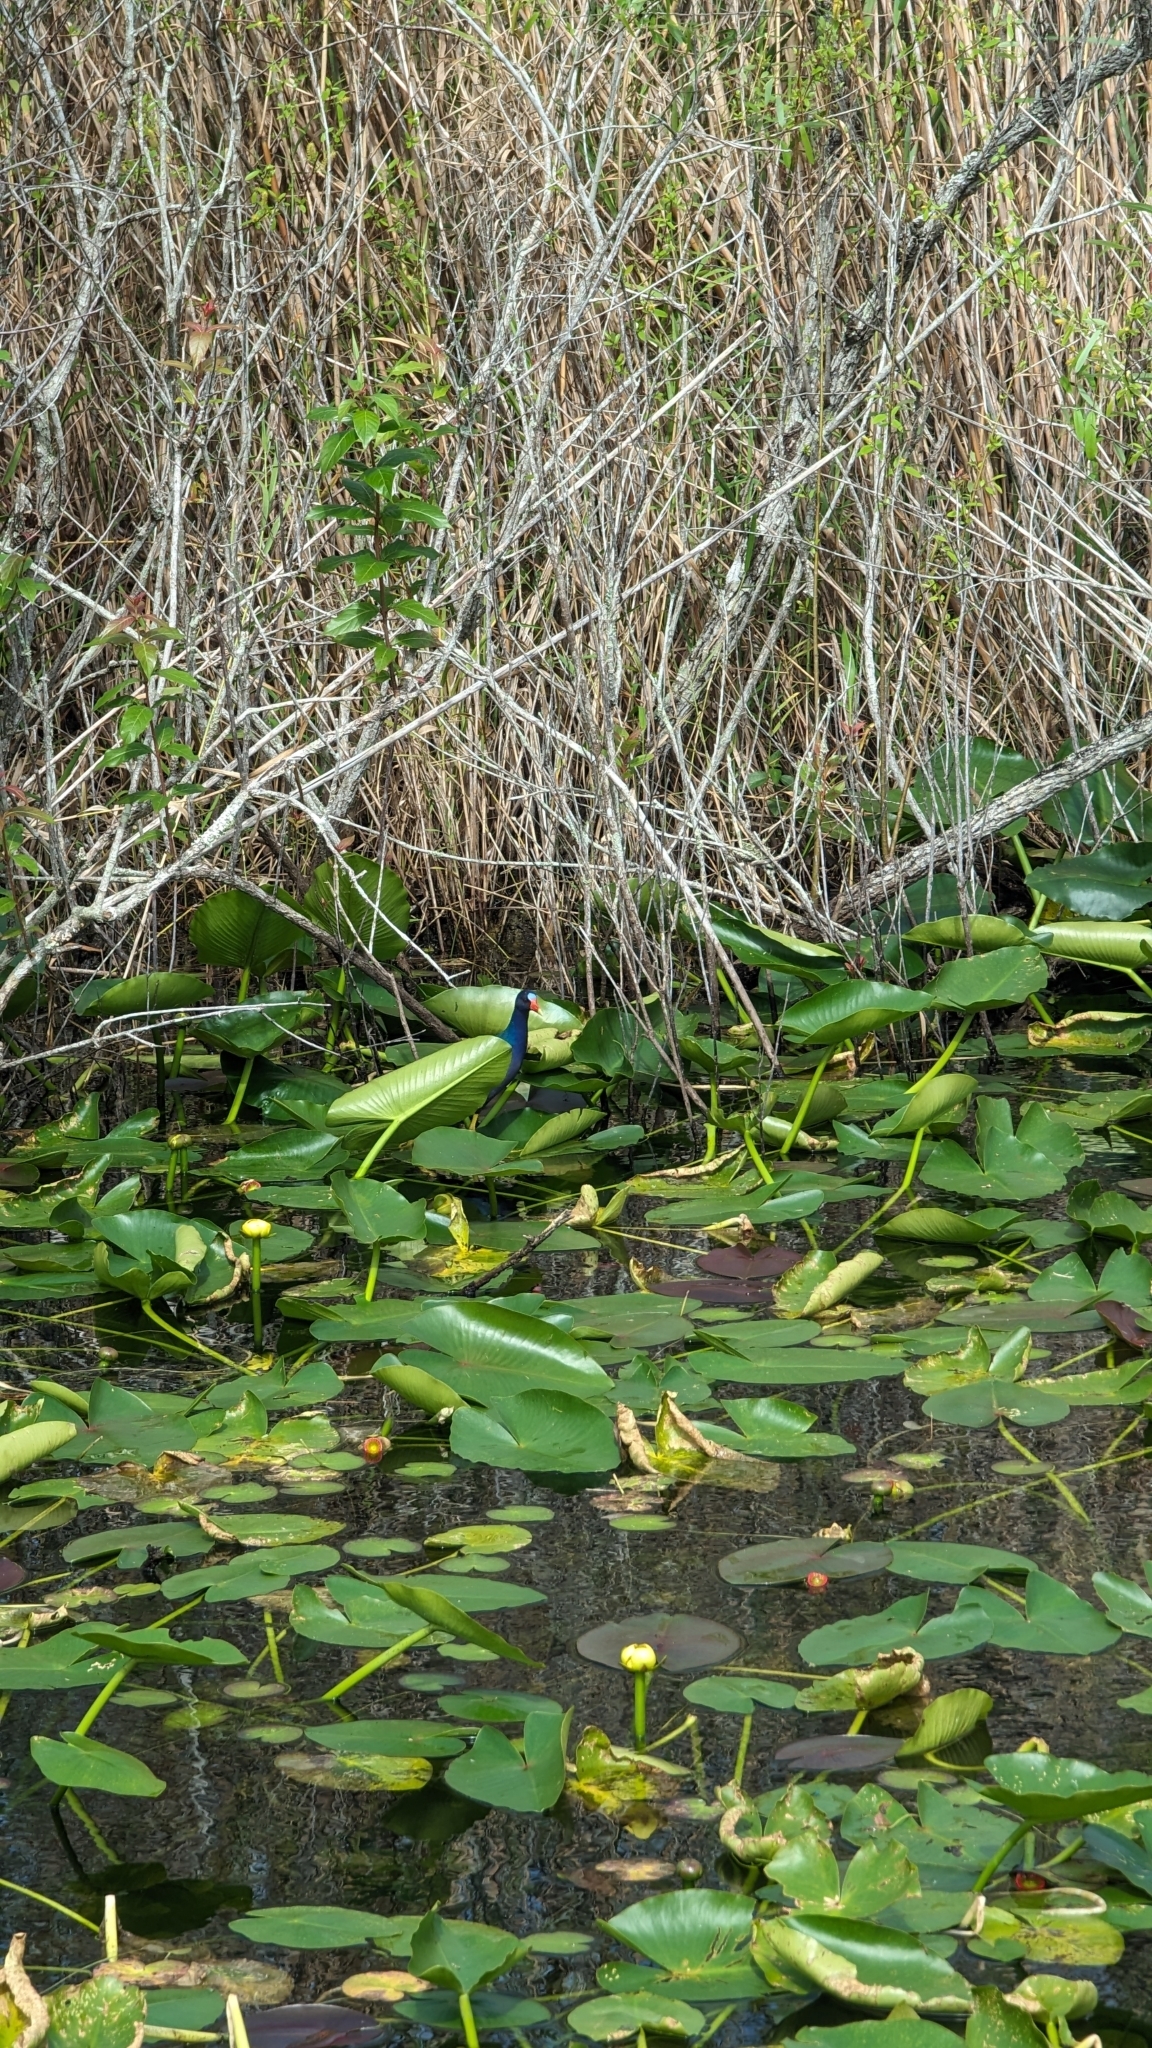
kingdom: Animalia
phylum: Chordata
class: Aves
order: Gruiformes
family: Rallidae
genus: Porphyrio
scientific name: Porphyrio martinica
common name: Purple gallinule
